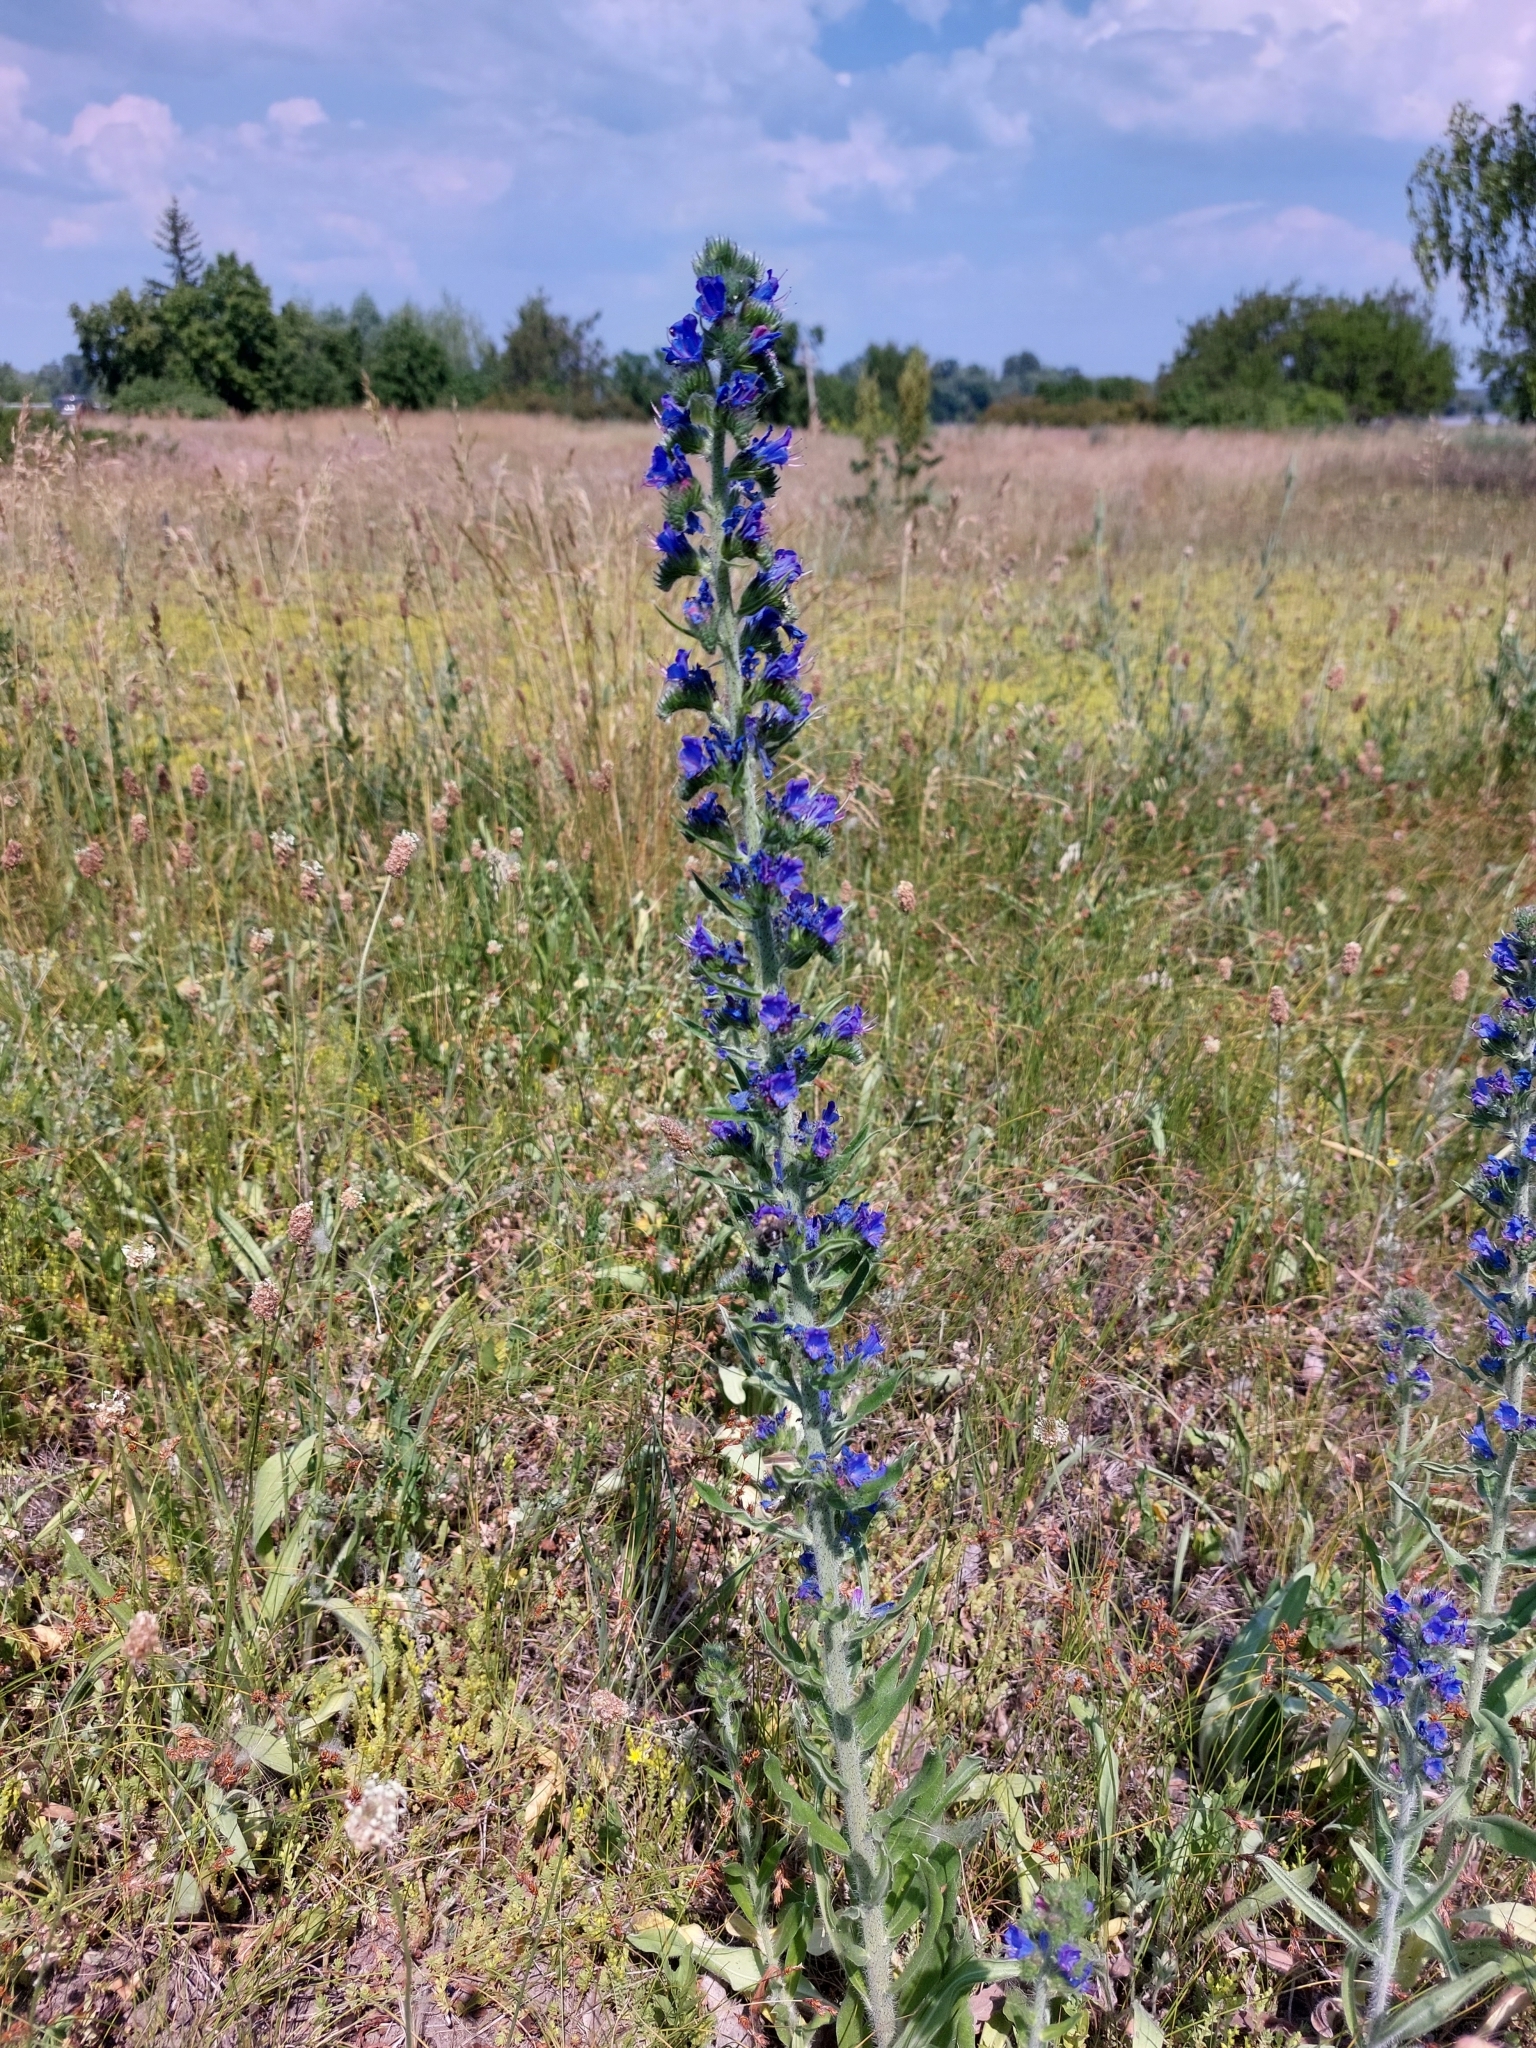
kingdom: Plantae
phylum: Tracheophyta
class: Magnoliopsida
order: Boraginales
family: Boraginaceae
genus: Echium
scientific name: Echium vulgare
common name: Common viper's bugloss
